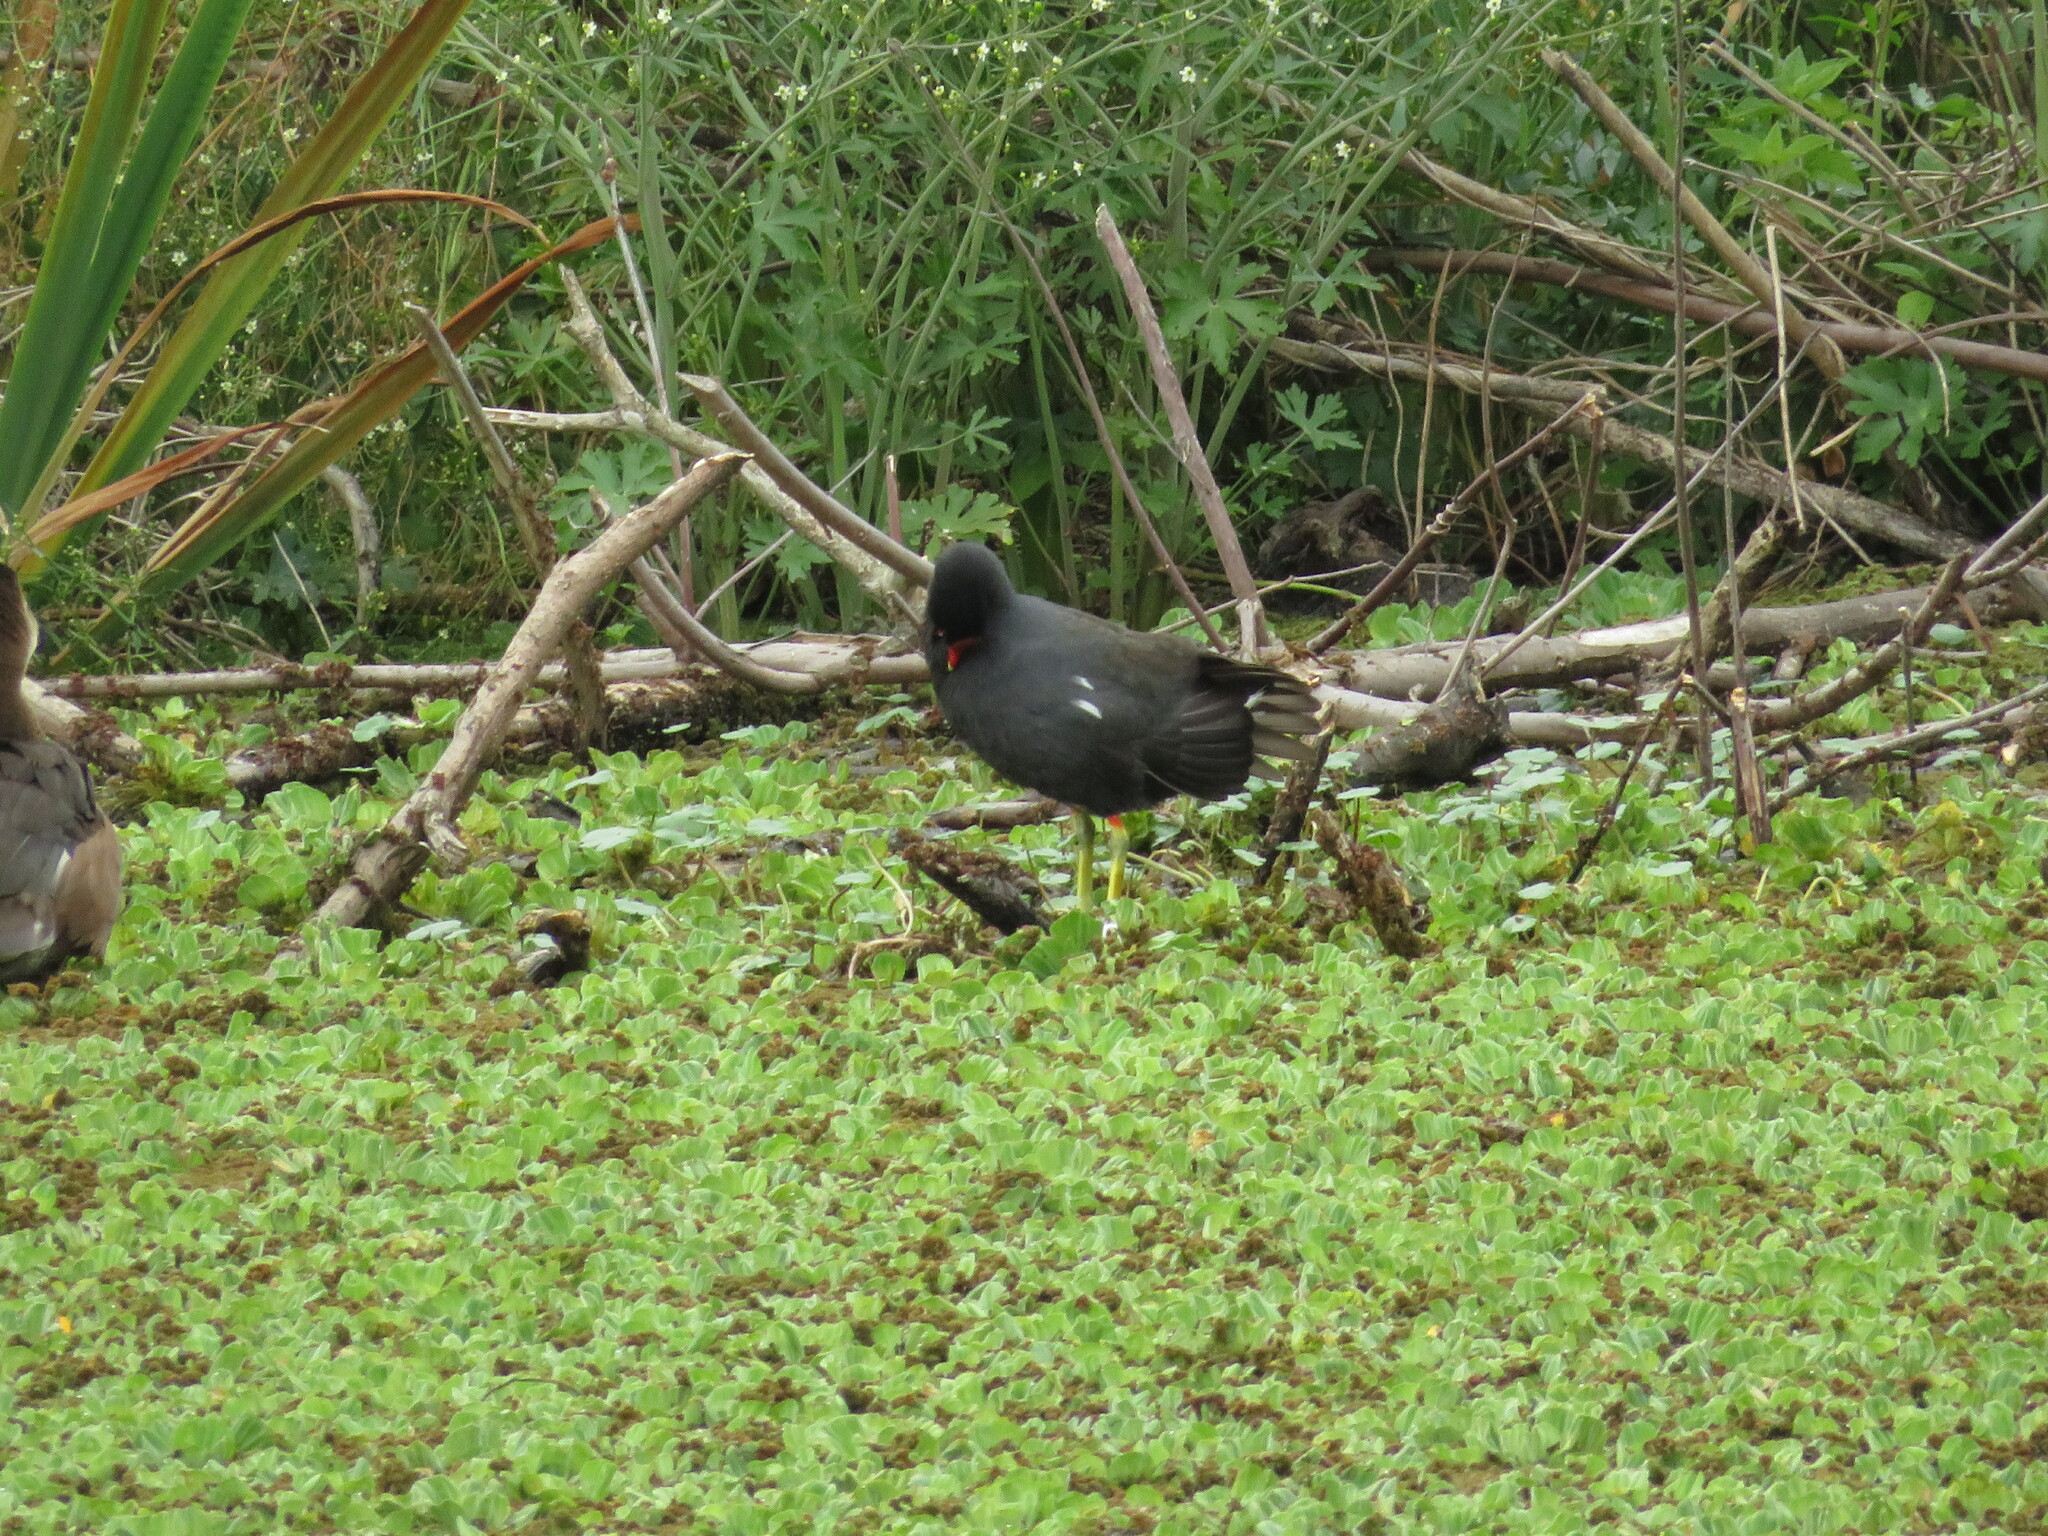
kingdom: Animalia
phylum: Chordata
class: Aves
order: Gruiformes
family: Rallidae
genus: Gallinula
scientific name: Gallinula chloropus
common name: Common moorhen
